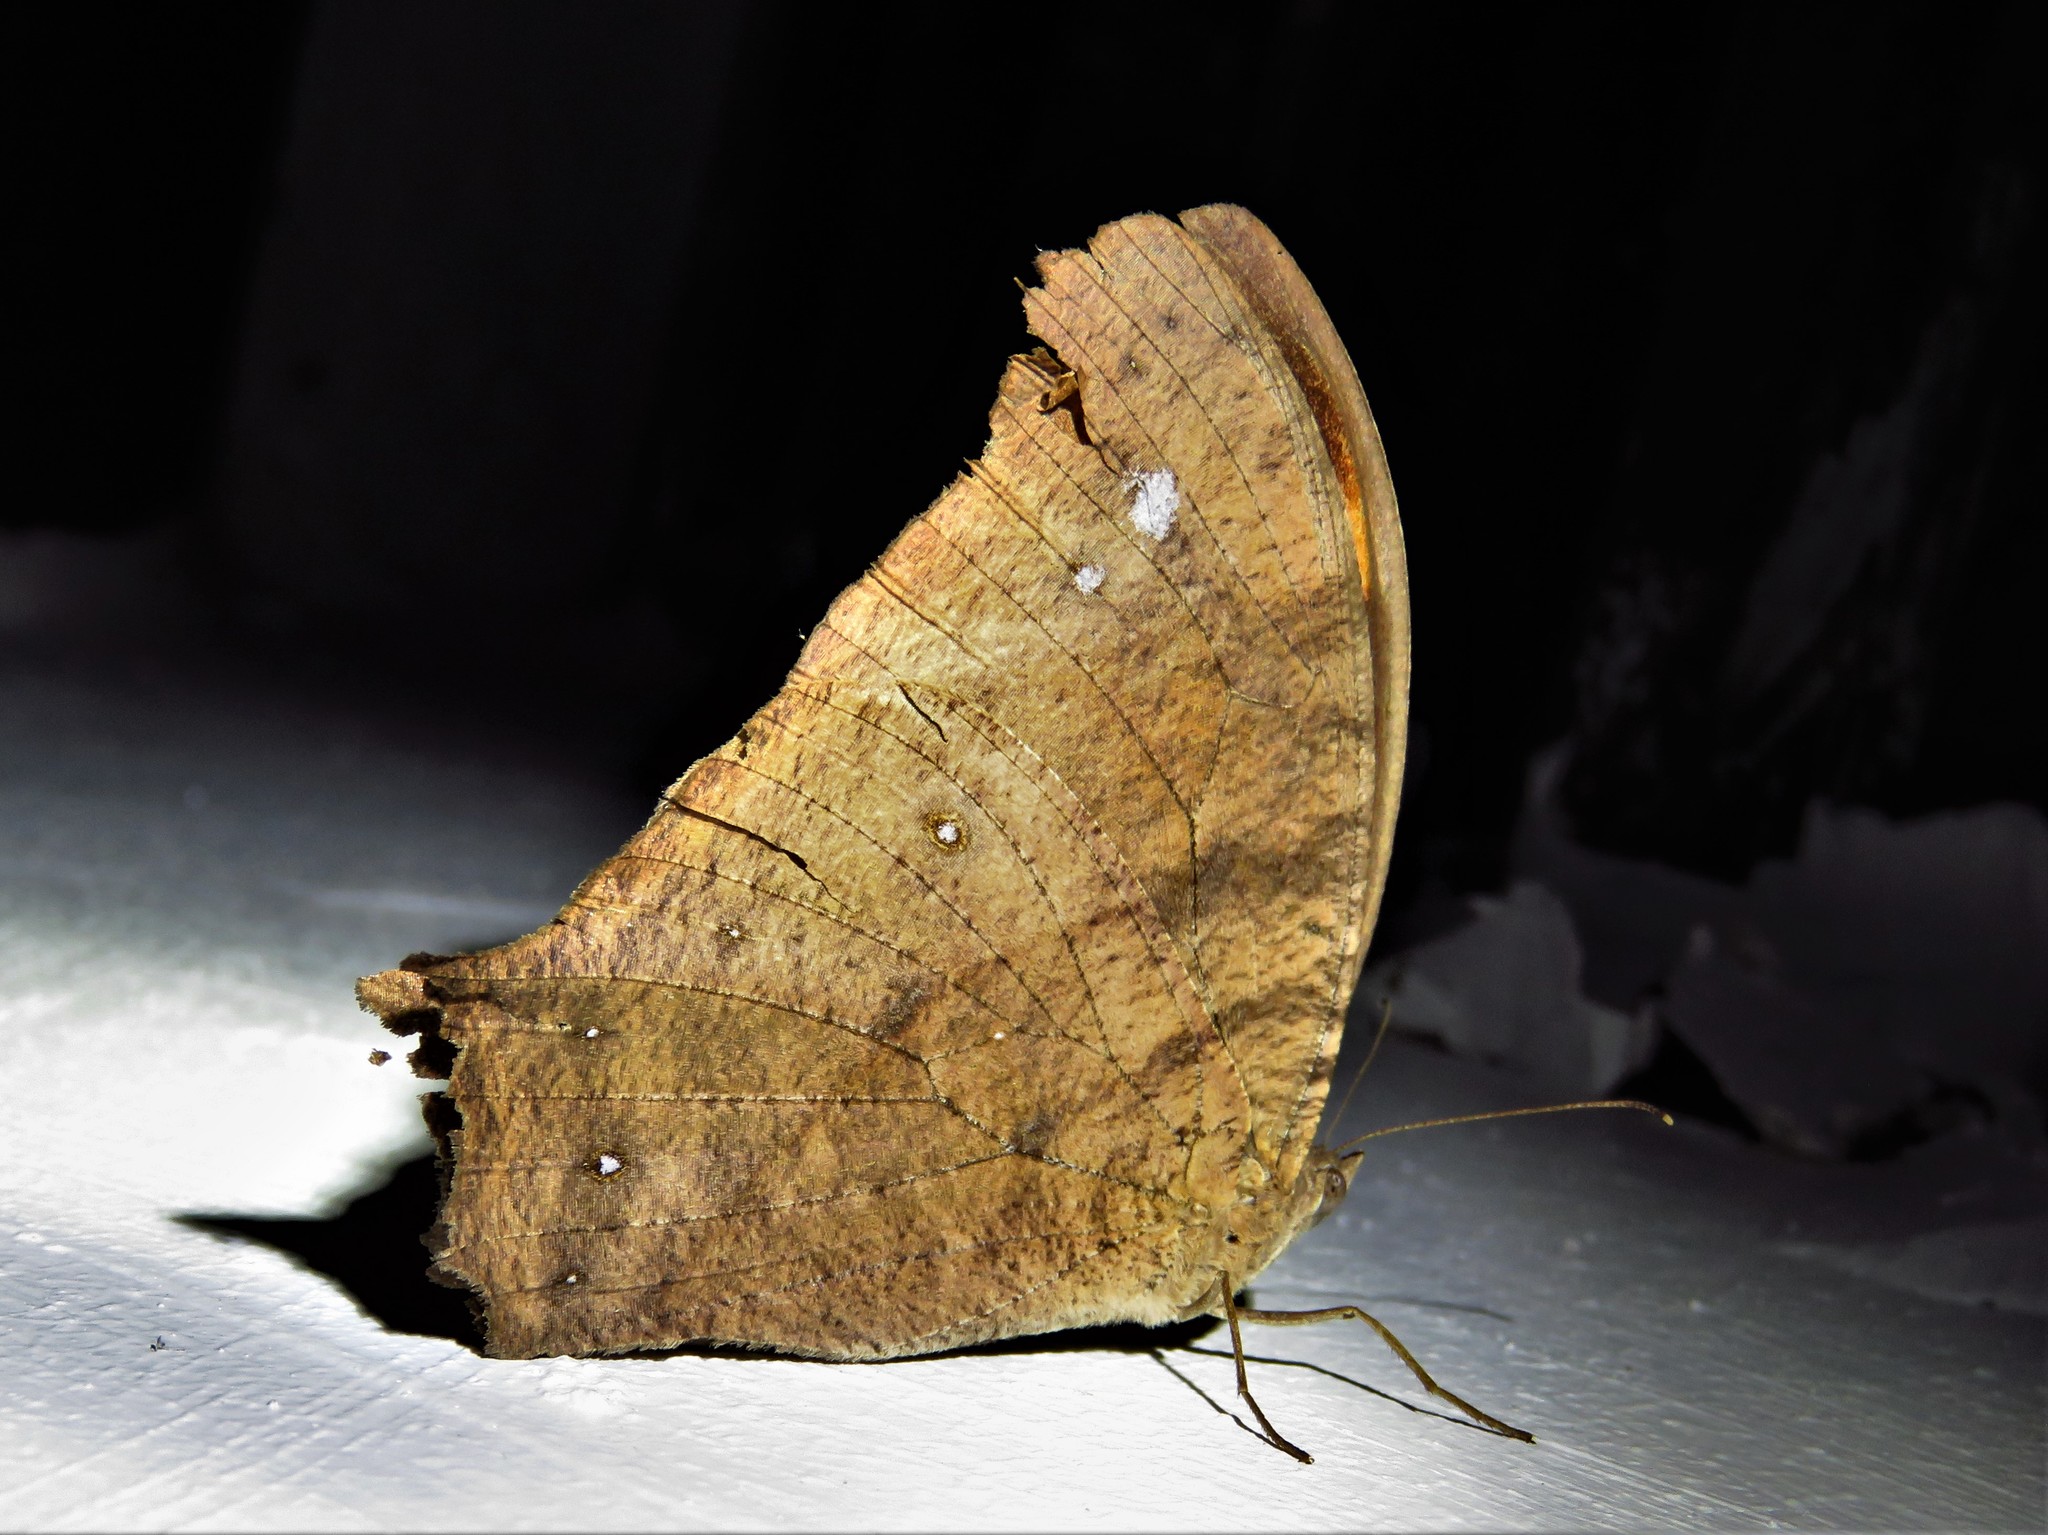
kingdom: Animalia
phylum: Arthropoda
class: Insecta
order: Lepidoptera
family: Nymphalidae
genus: Melanitis
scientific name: Melanitis leda
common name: Twilight brown
